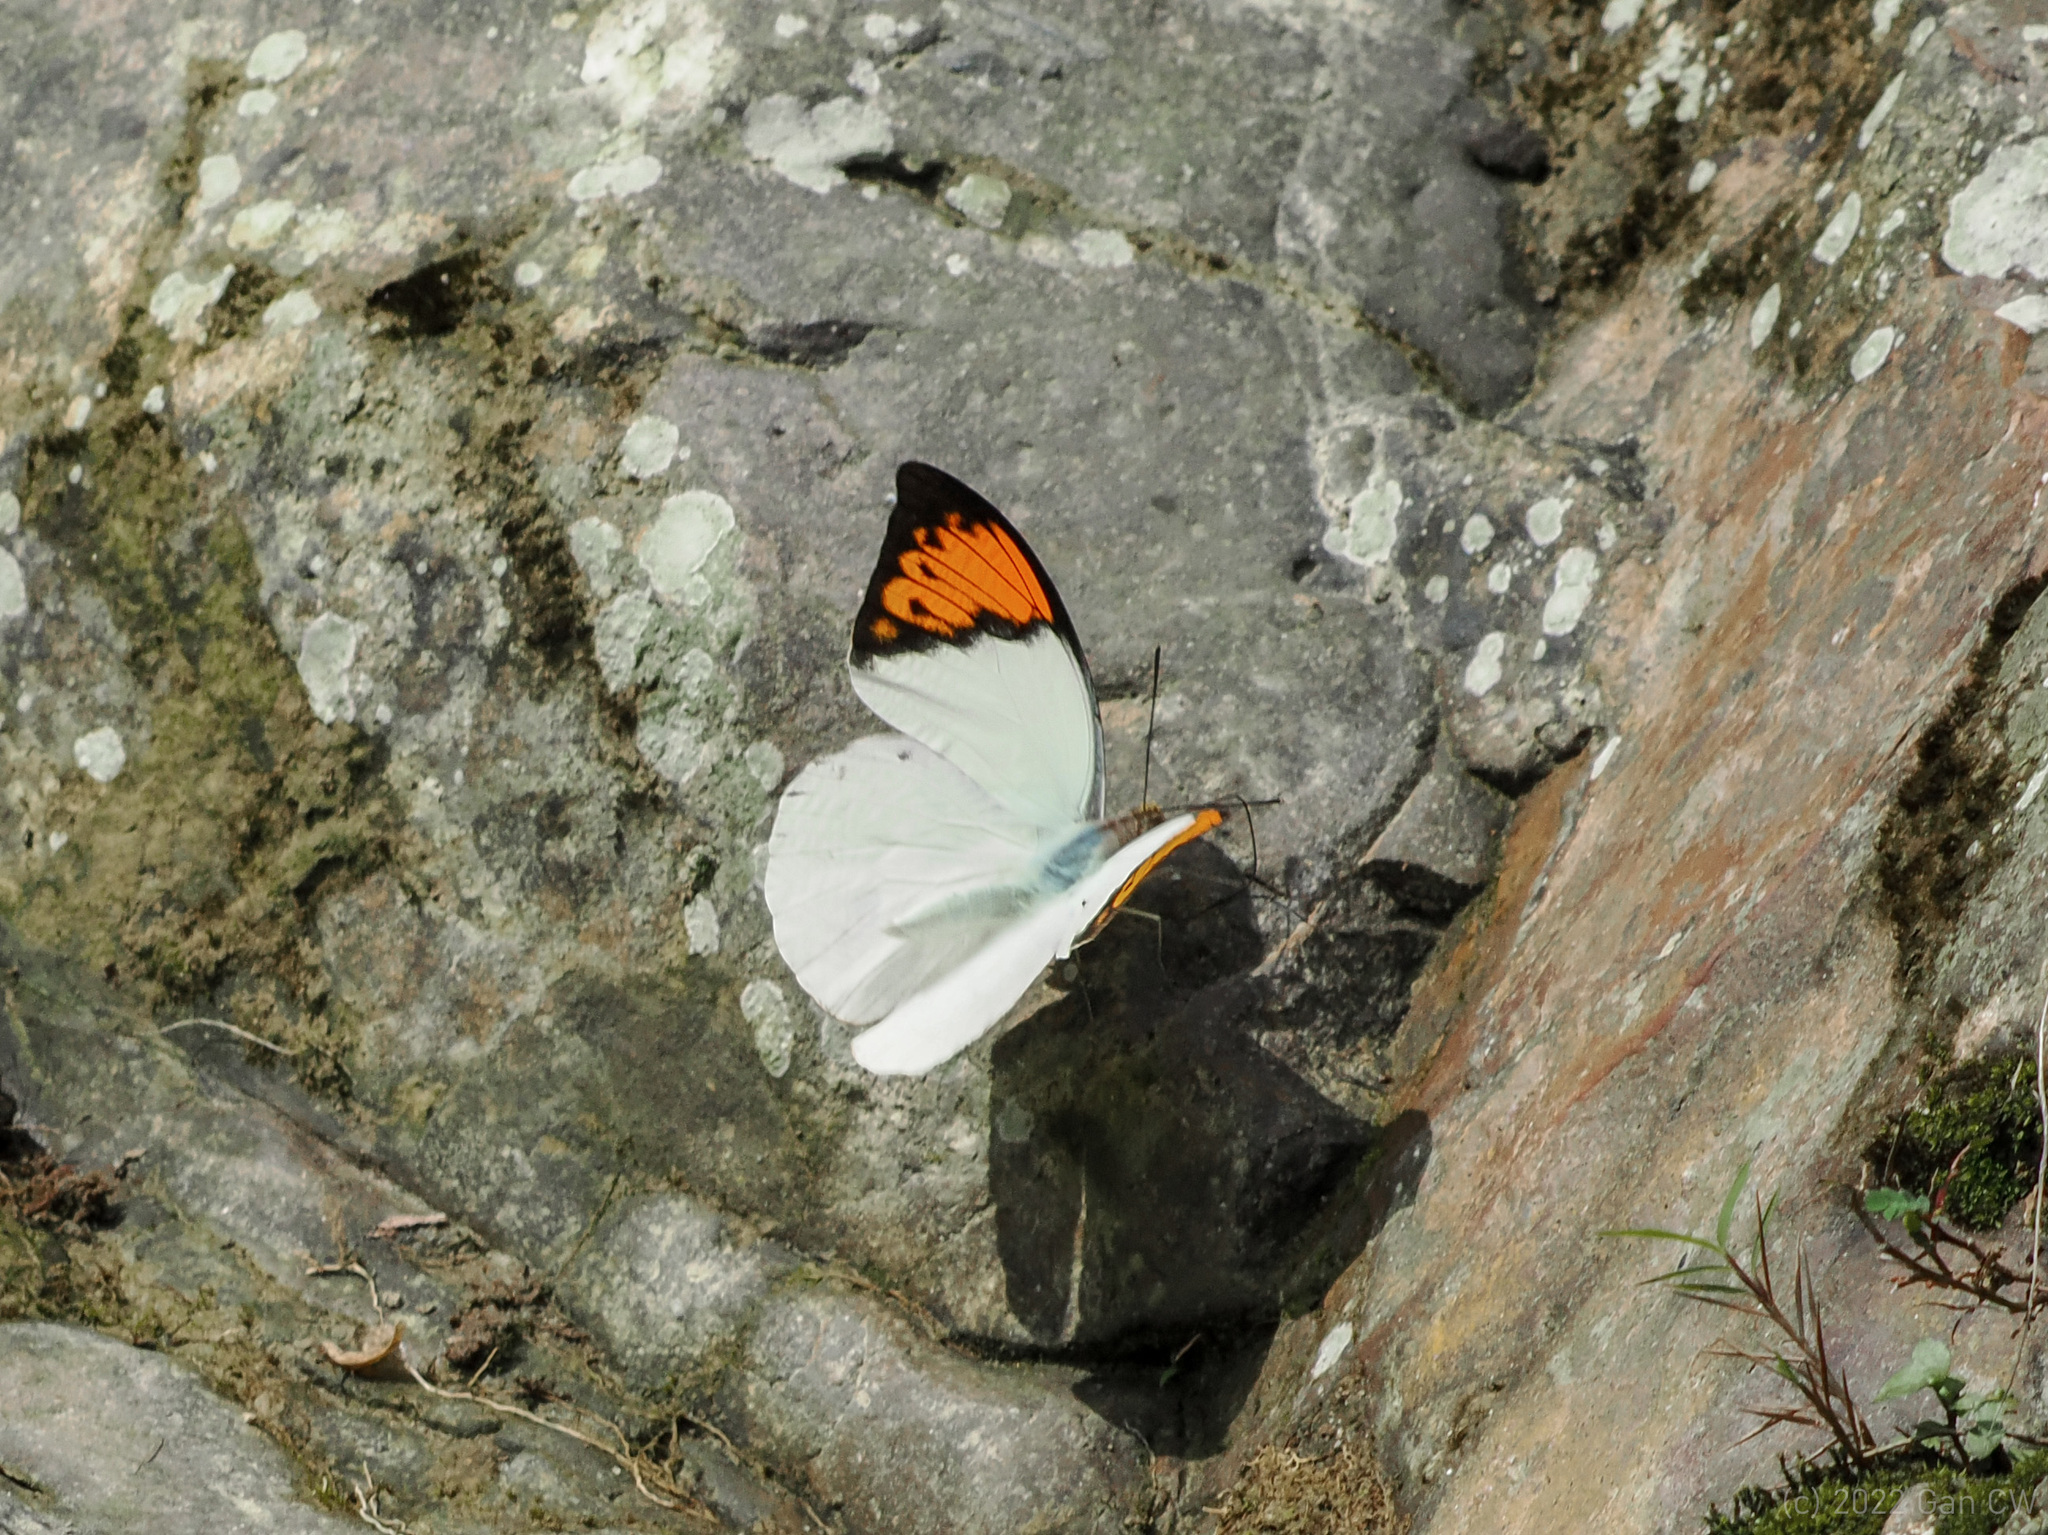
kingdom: Animalia
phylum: Arthropoda
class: Insecta
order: Lepidoptera
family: Pieridae
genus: Hebomoia
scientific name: Hebomoia glaucippe
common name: Great orange tip
